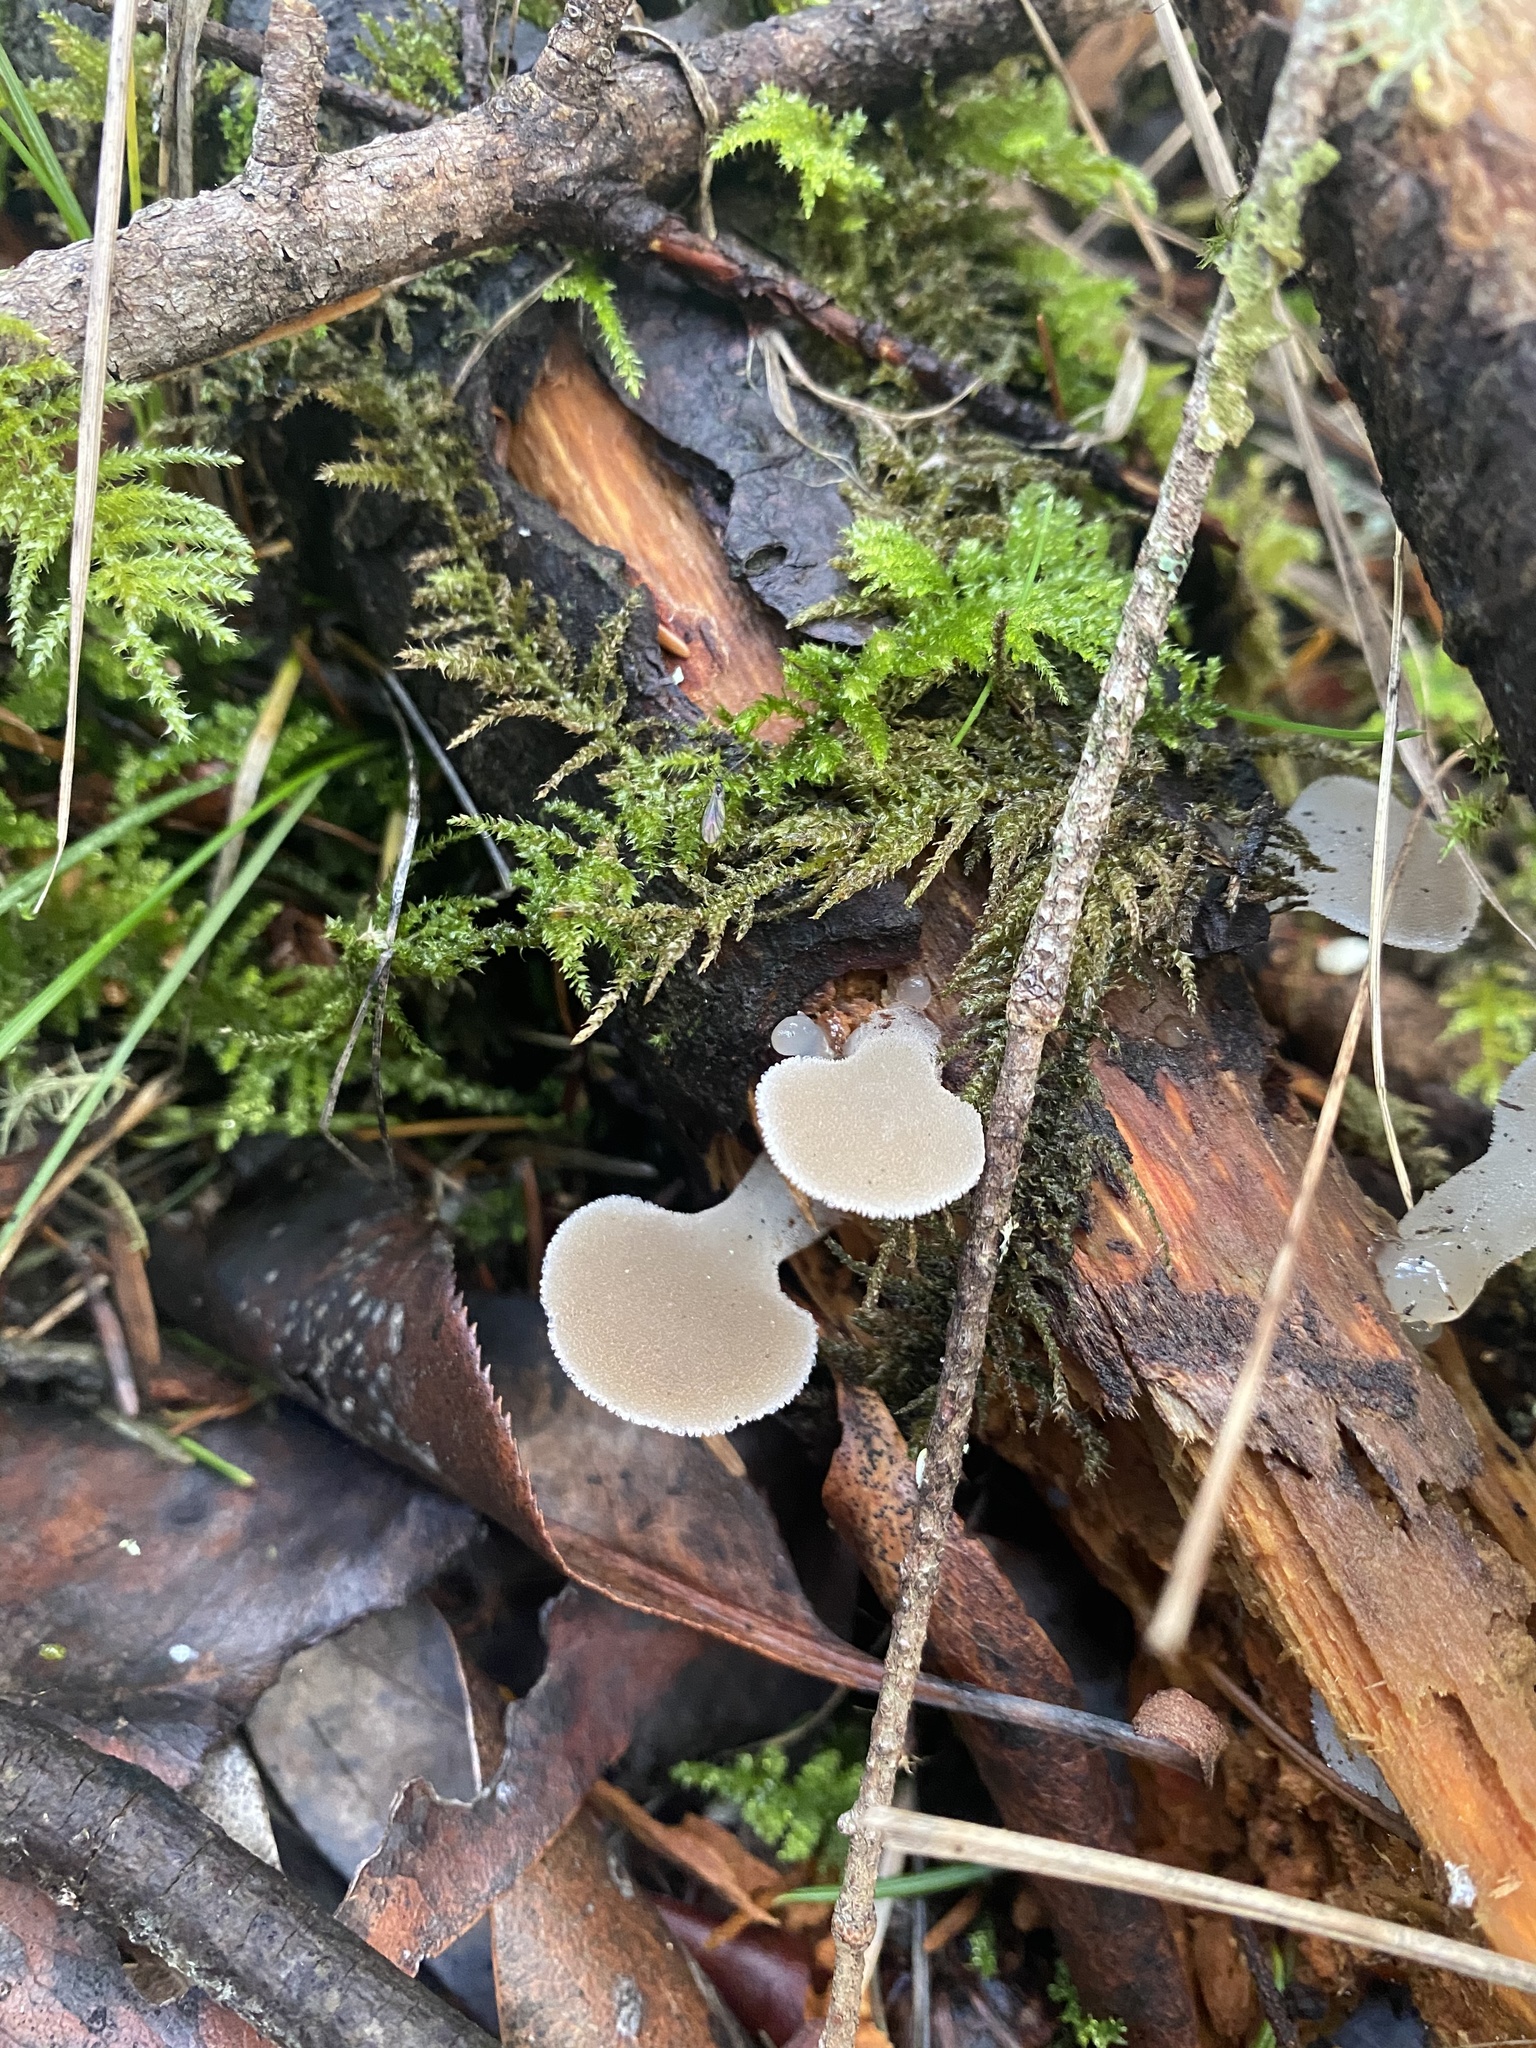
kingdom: Fungi
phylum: Basidiomycota
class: Agaricomycetes
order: Auriculariales
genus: Pseudohydnum
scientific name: Pseudohydnum gelatinosum
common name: Jelly tongue
